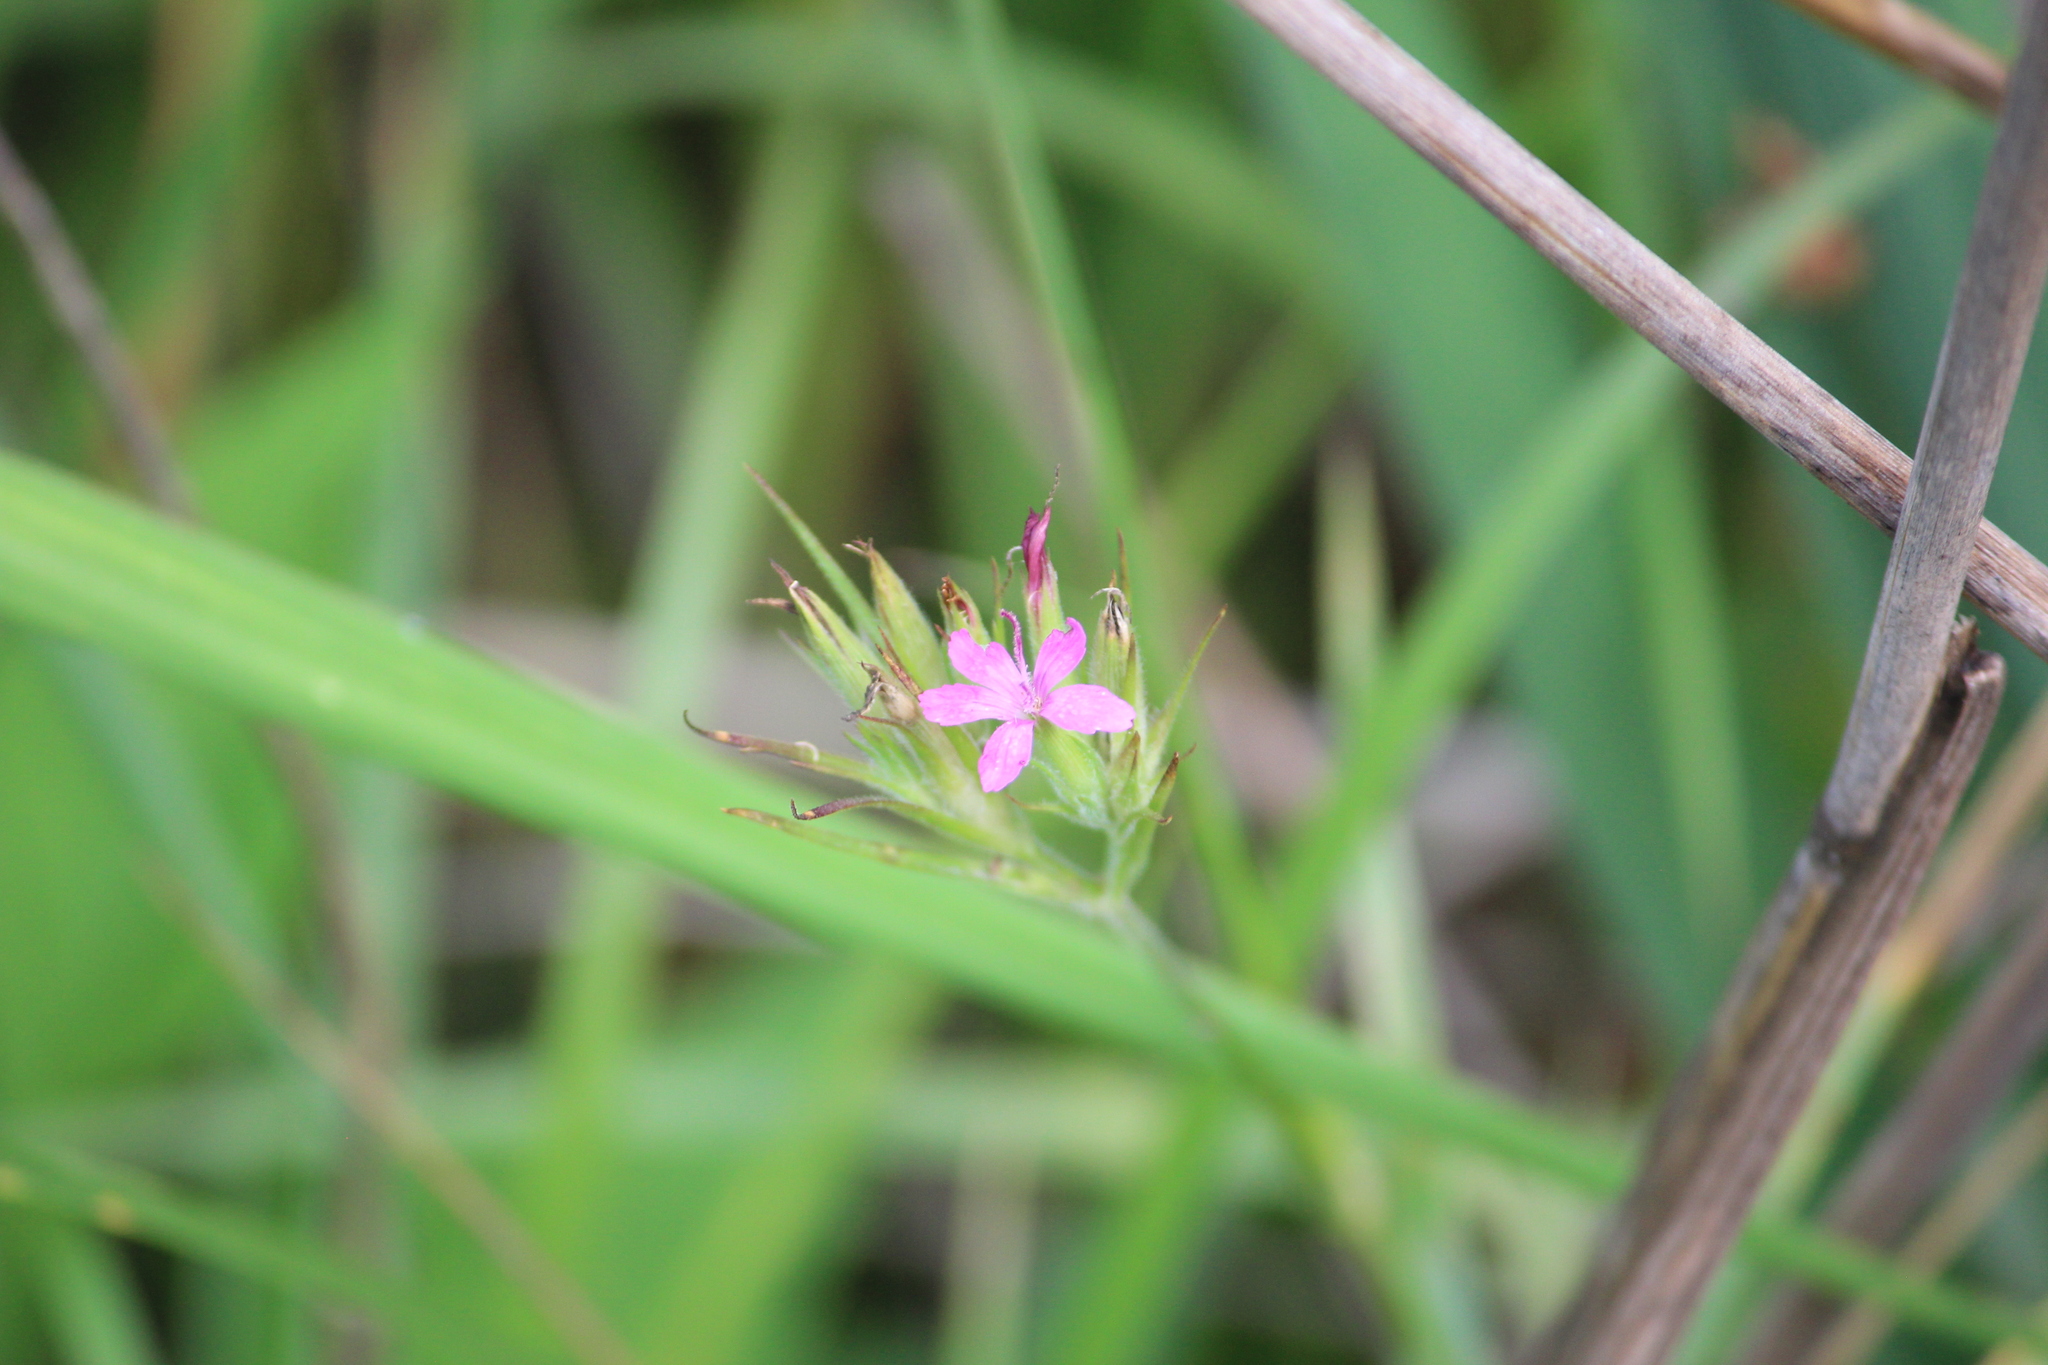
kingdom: Plantae
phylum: Tracheophyta
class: Magnoliopsida
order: Caryophyllales
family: Caryophyllaceae
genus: Dianthus
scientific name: Dianthus armeria
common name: Deptford pink
